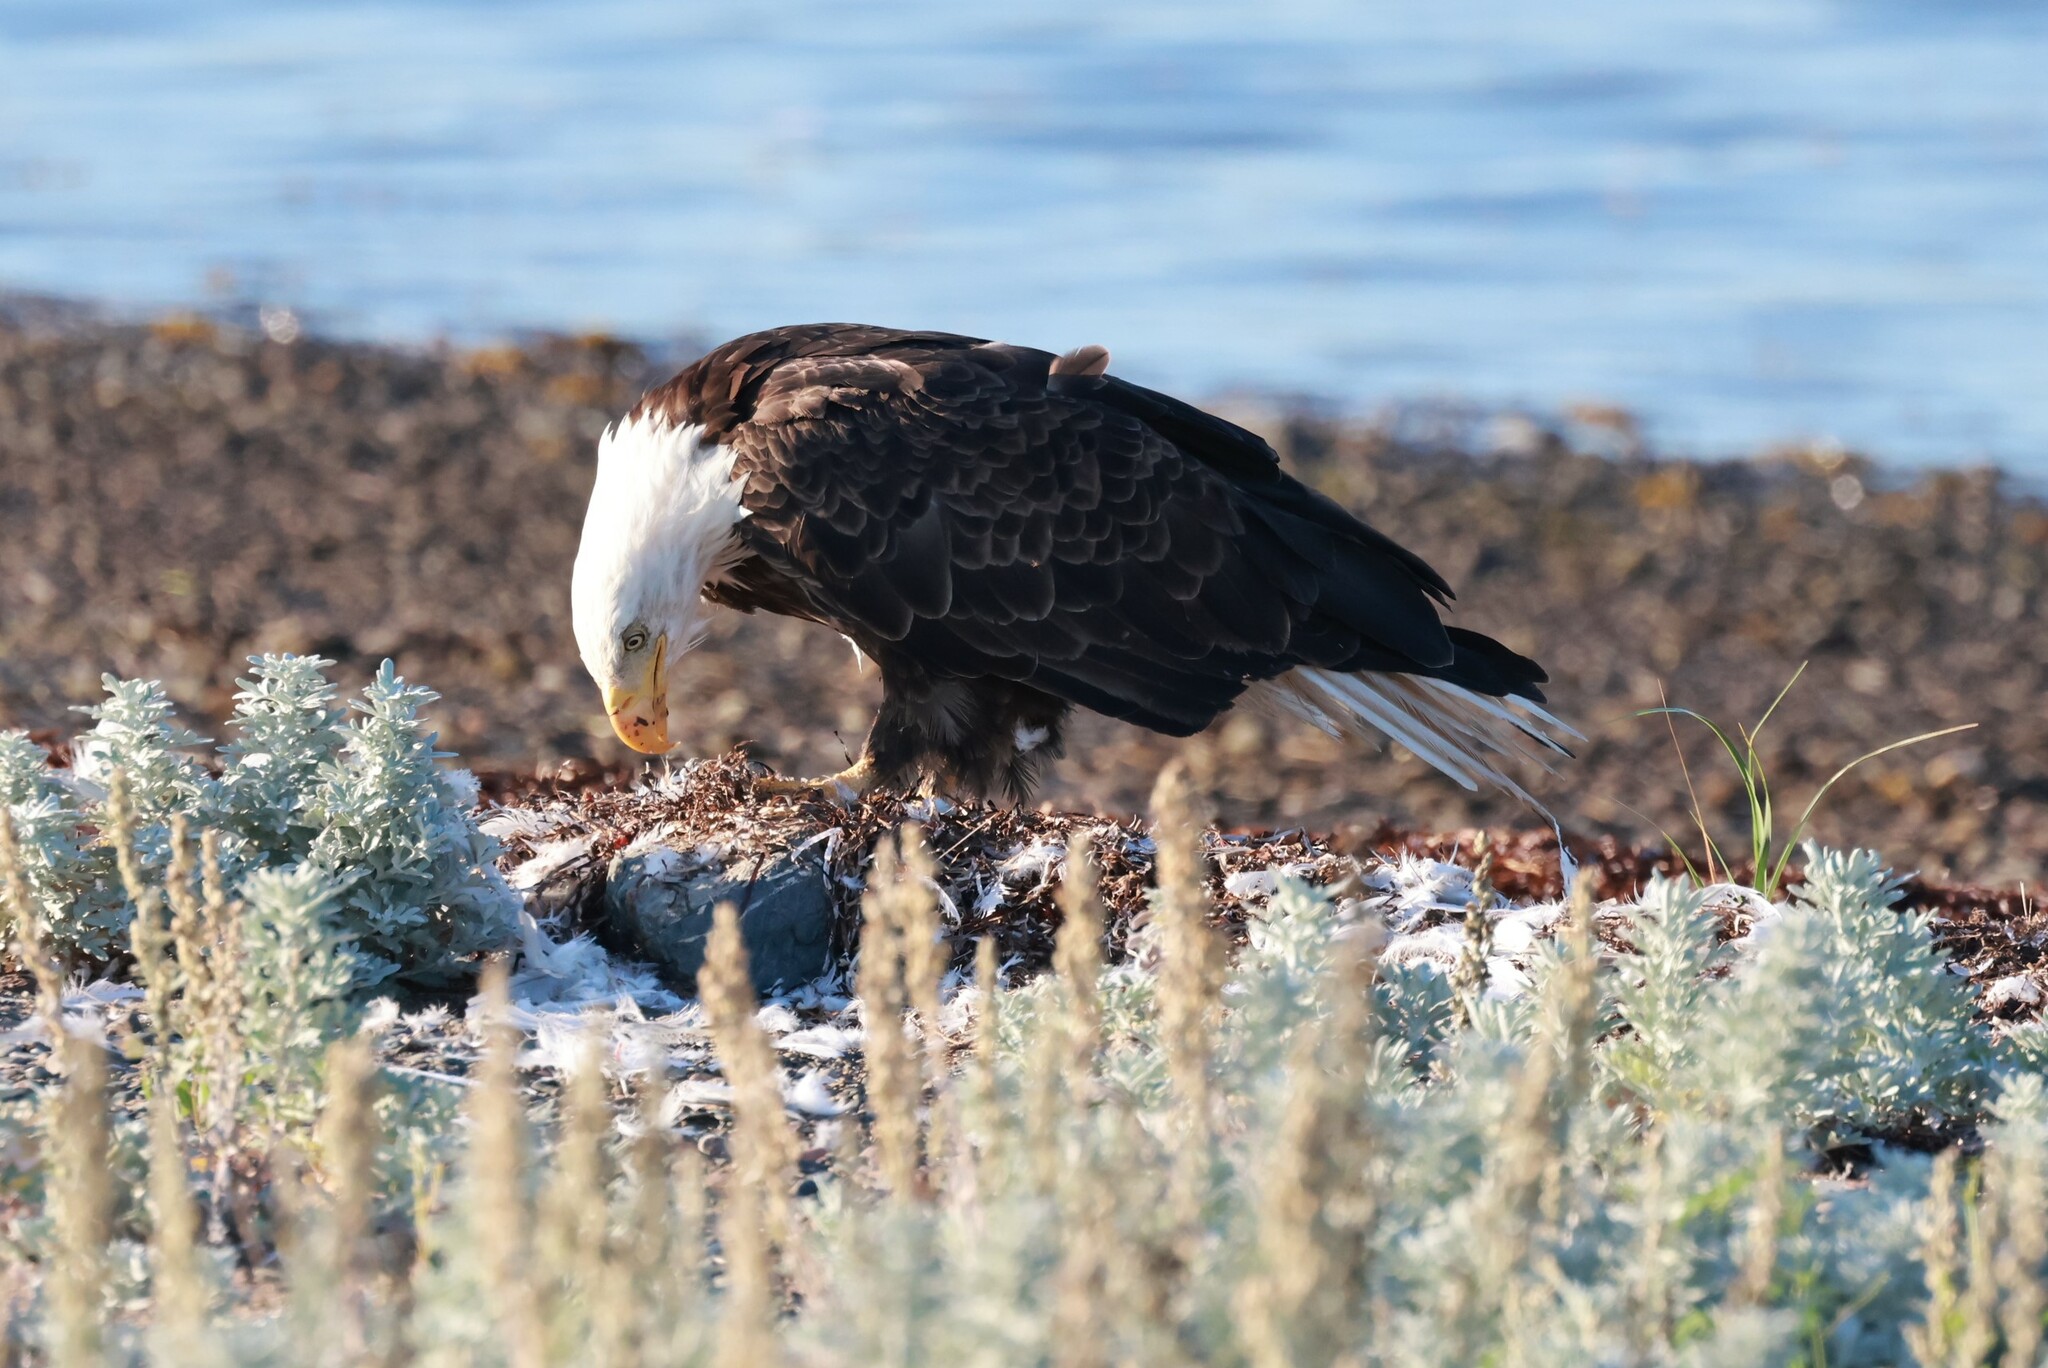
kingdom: Animalia
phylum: Chordata
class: Aves
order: Accipitriformes
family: Accipitridae
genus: Haliaeetus
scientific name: Haliaeetus leucocephalus
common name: Bald eagle
